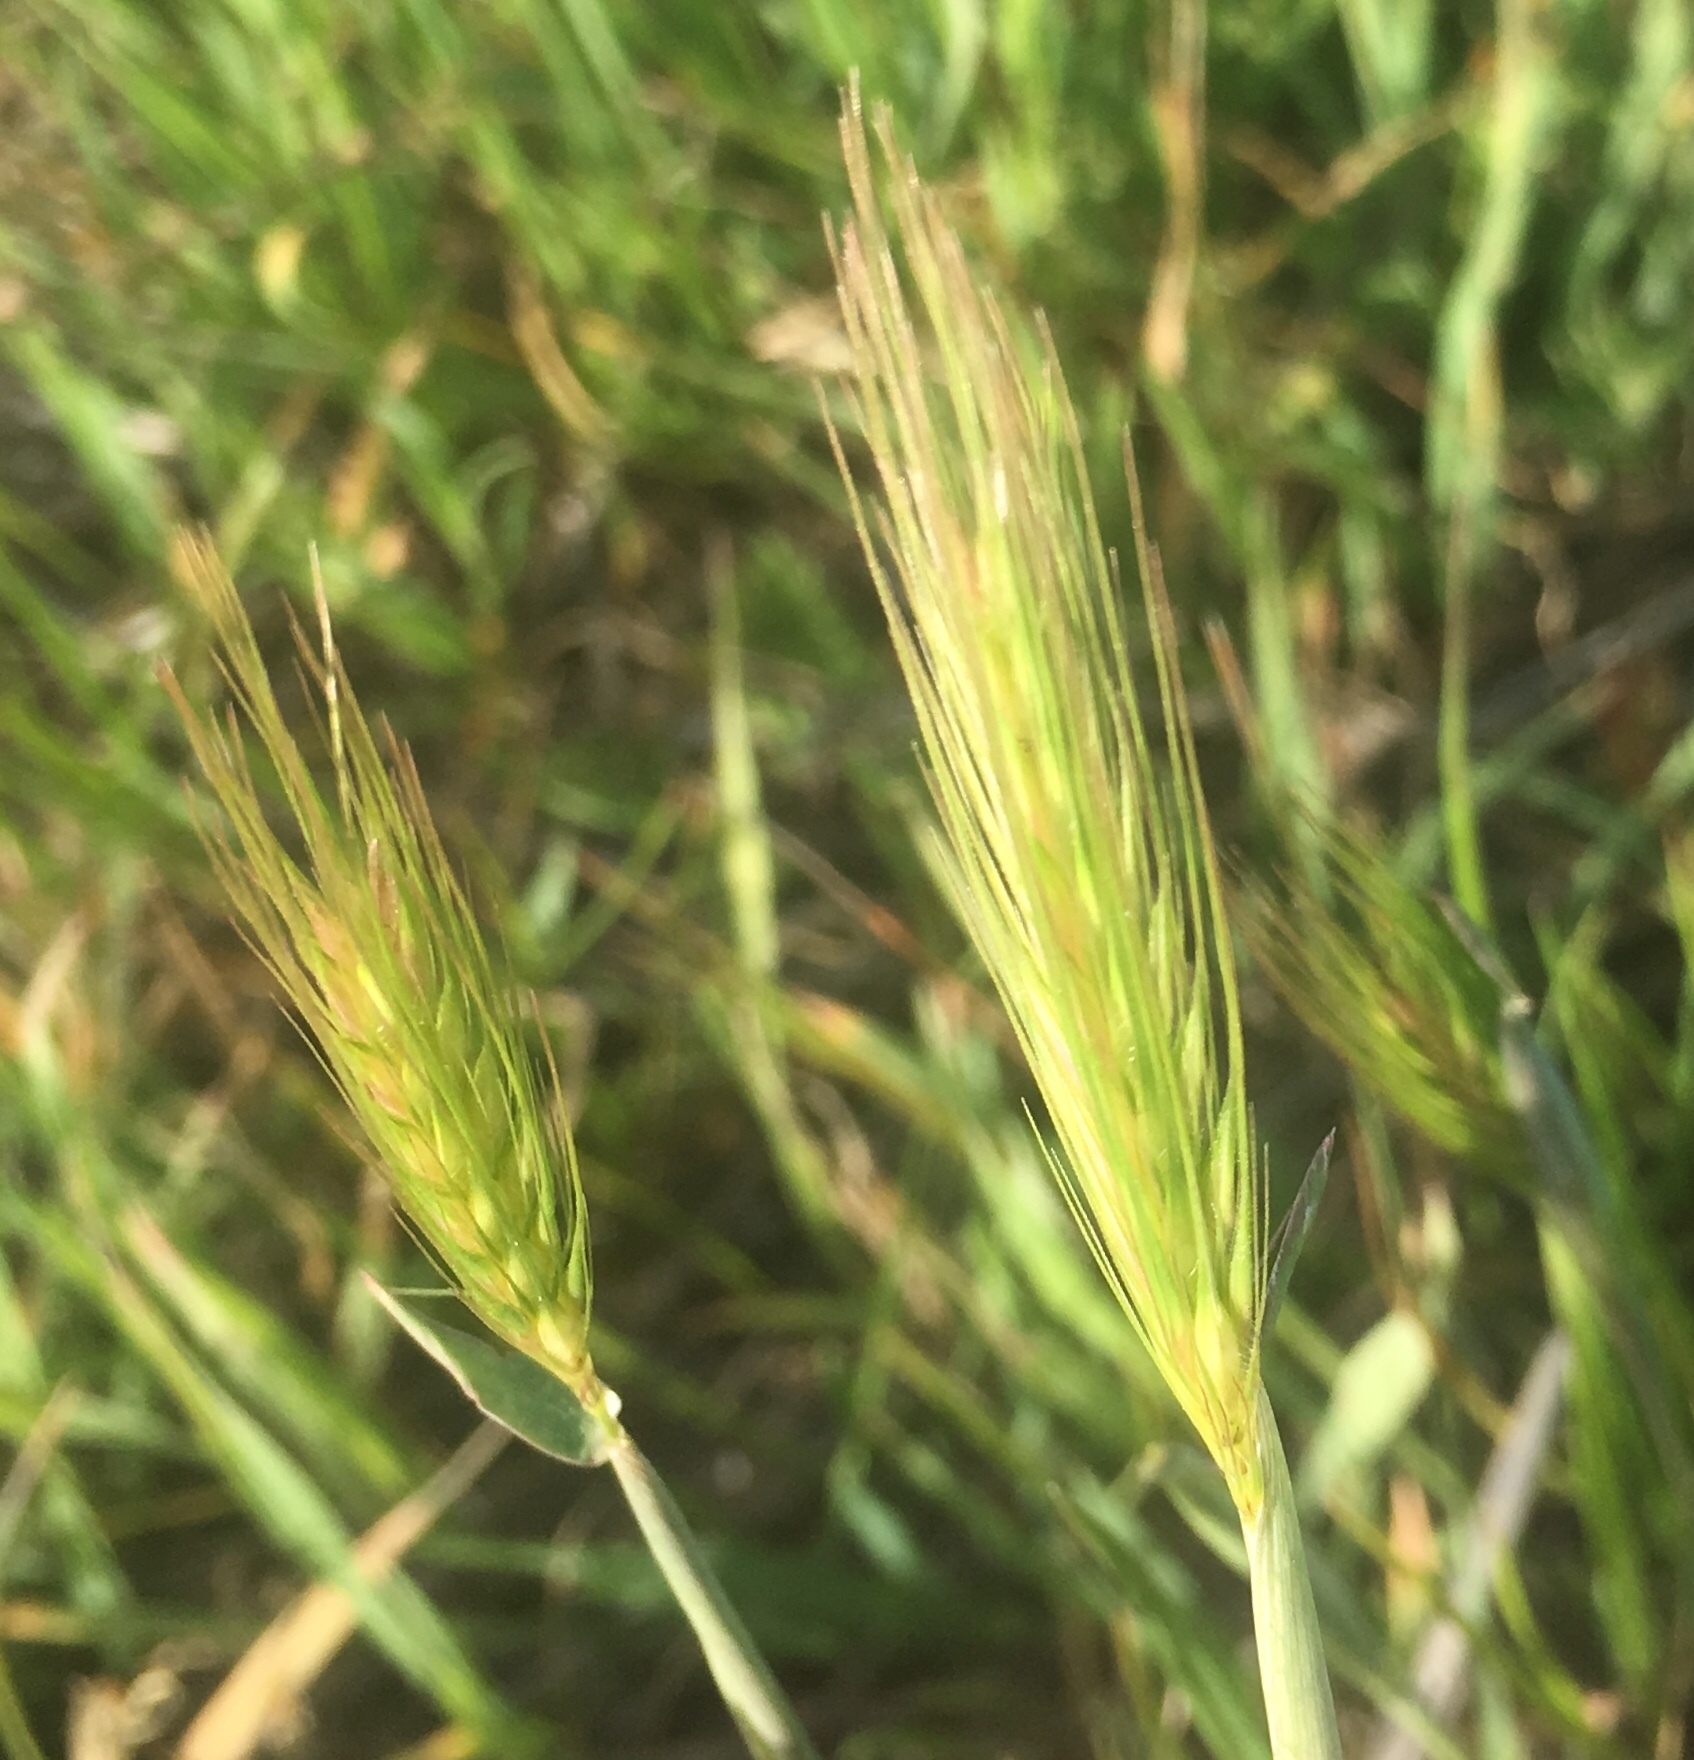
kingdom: Plantae
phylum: Tracheophyta
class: Liliopsida
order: Poales
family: Poaceae
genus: Hordeum
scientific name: Hordeum murinum
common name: Wall barley
